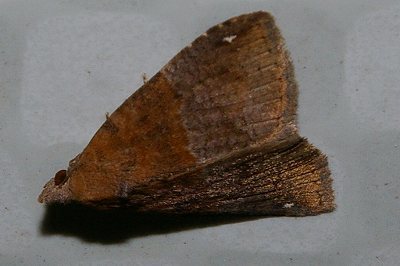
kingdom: Animalia
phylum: Arthropoda
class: Insecta
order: Lepidoptera
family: Erebidae
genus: Harita
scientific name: Harita
